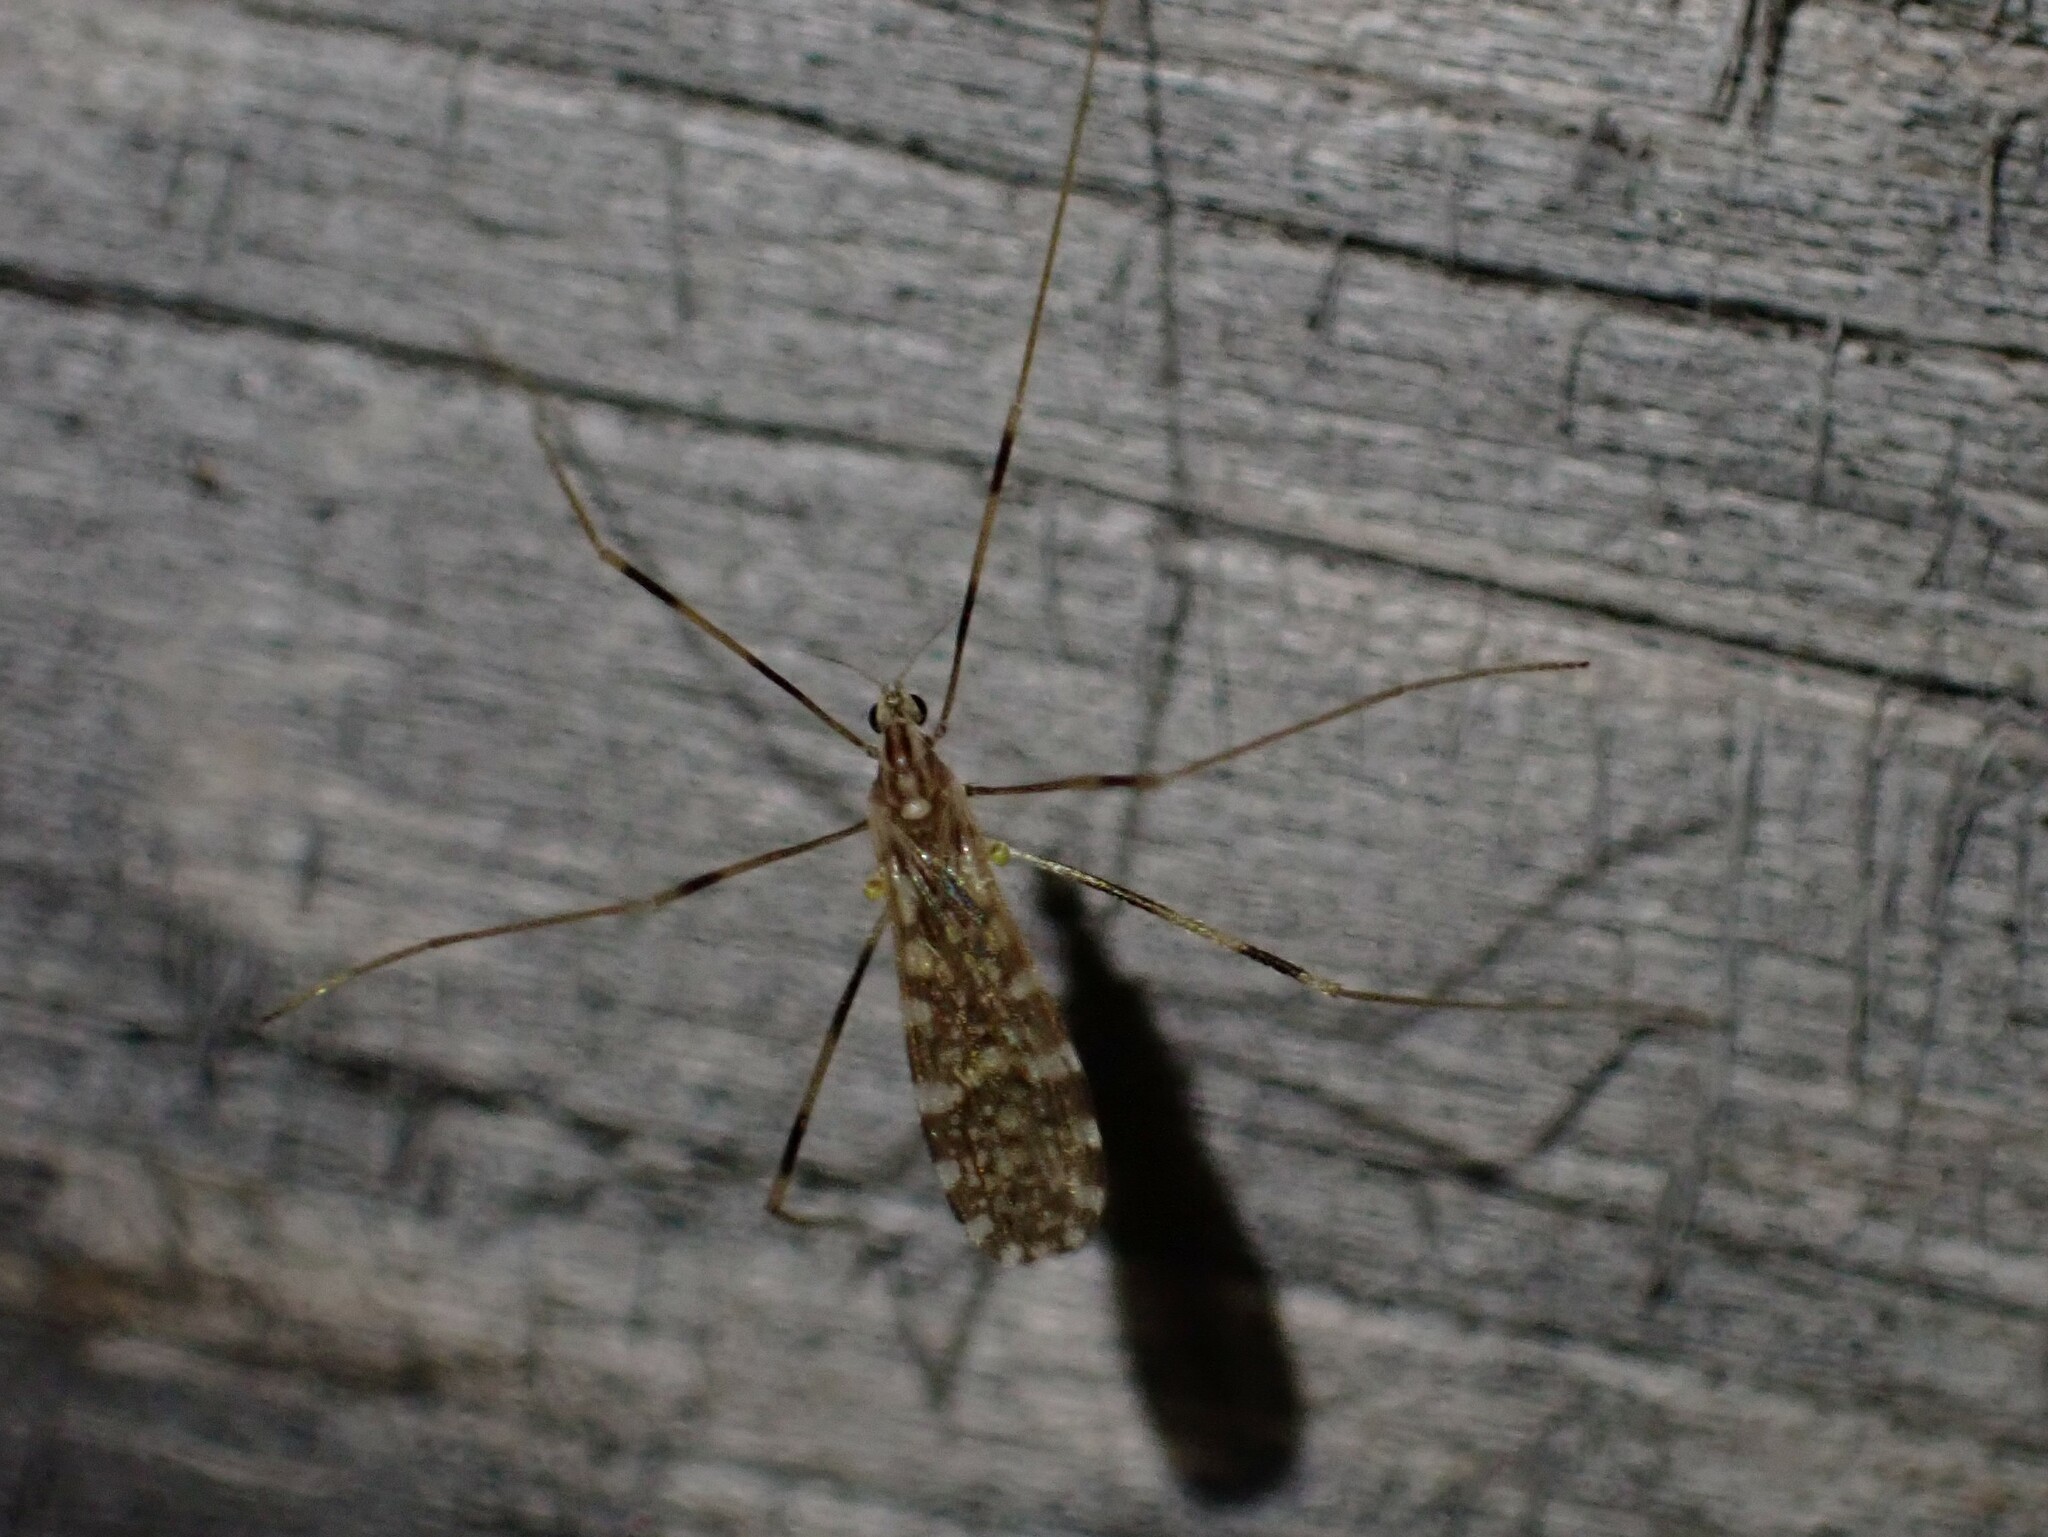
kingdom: Animalia
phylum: Arthropoda
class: Insecta
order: Diptera
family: Limoniidae
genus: Erioptera
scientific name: Erioptera caliptera
